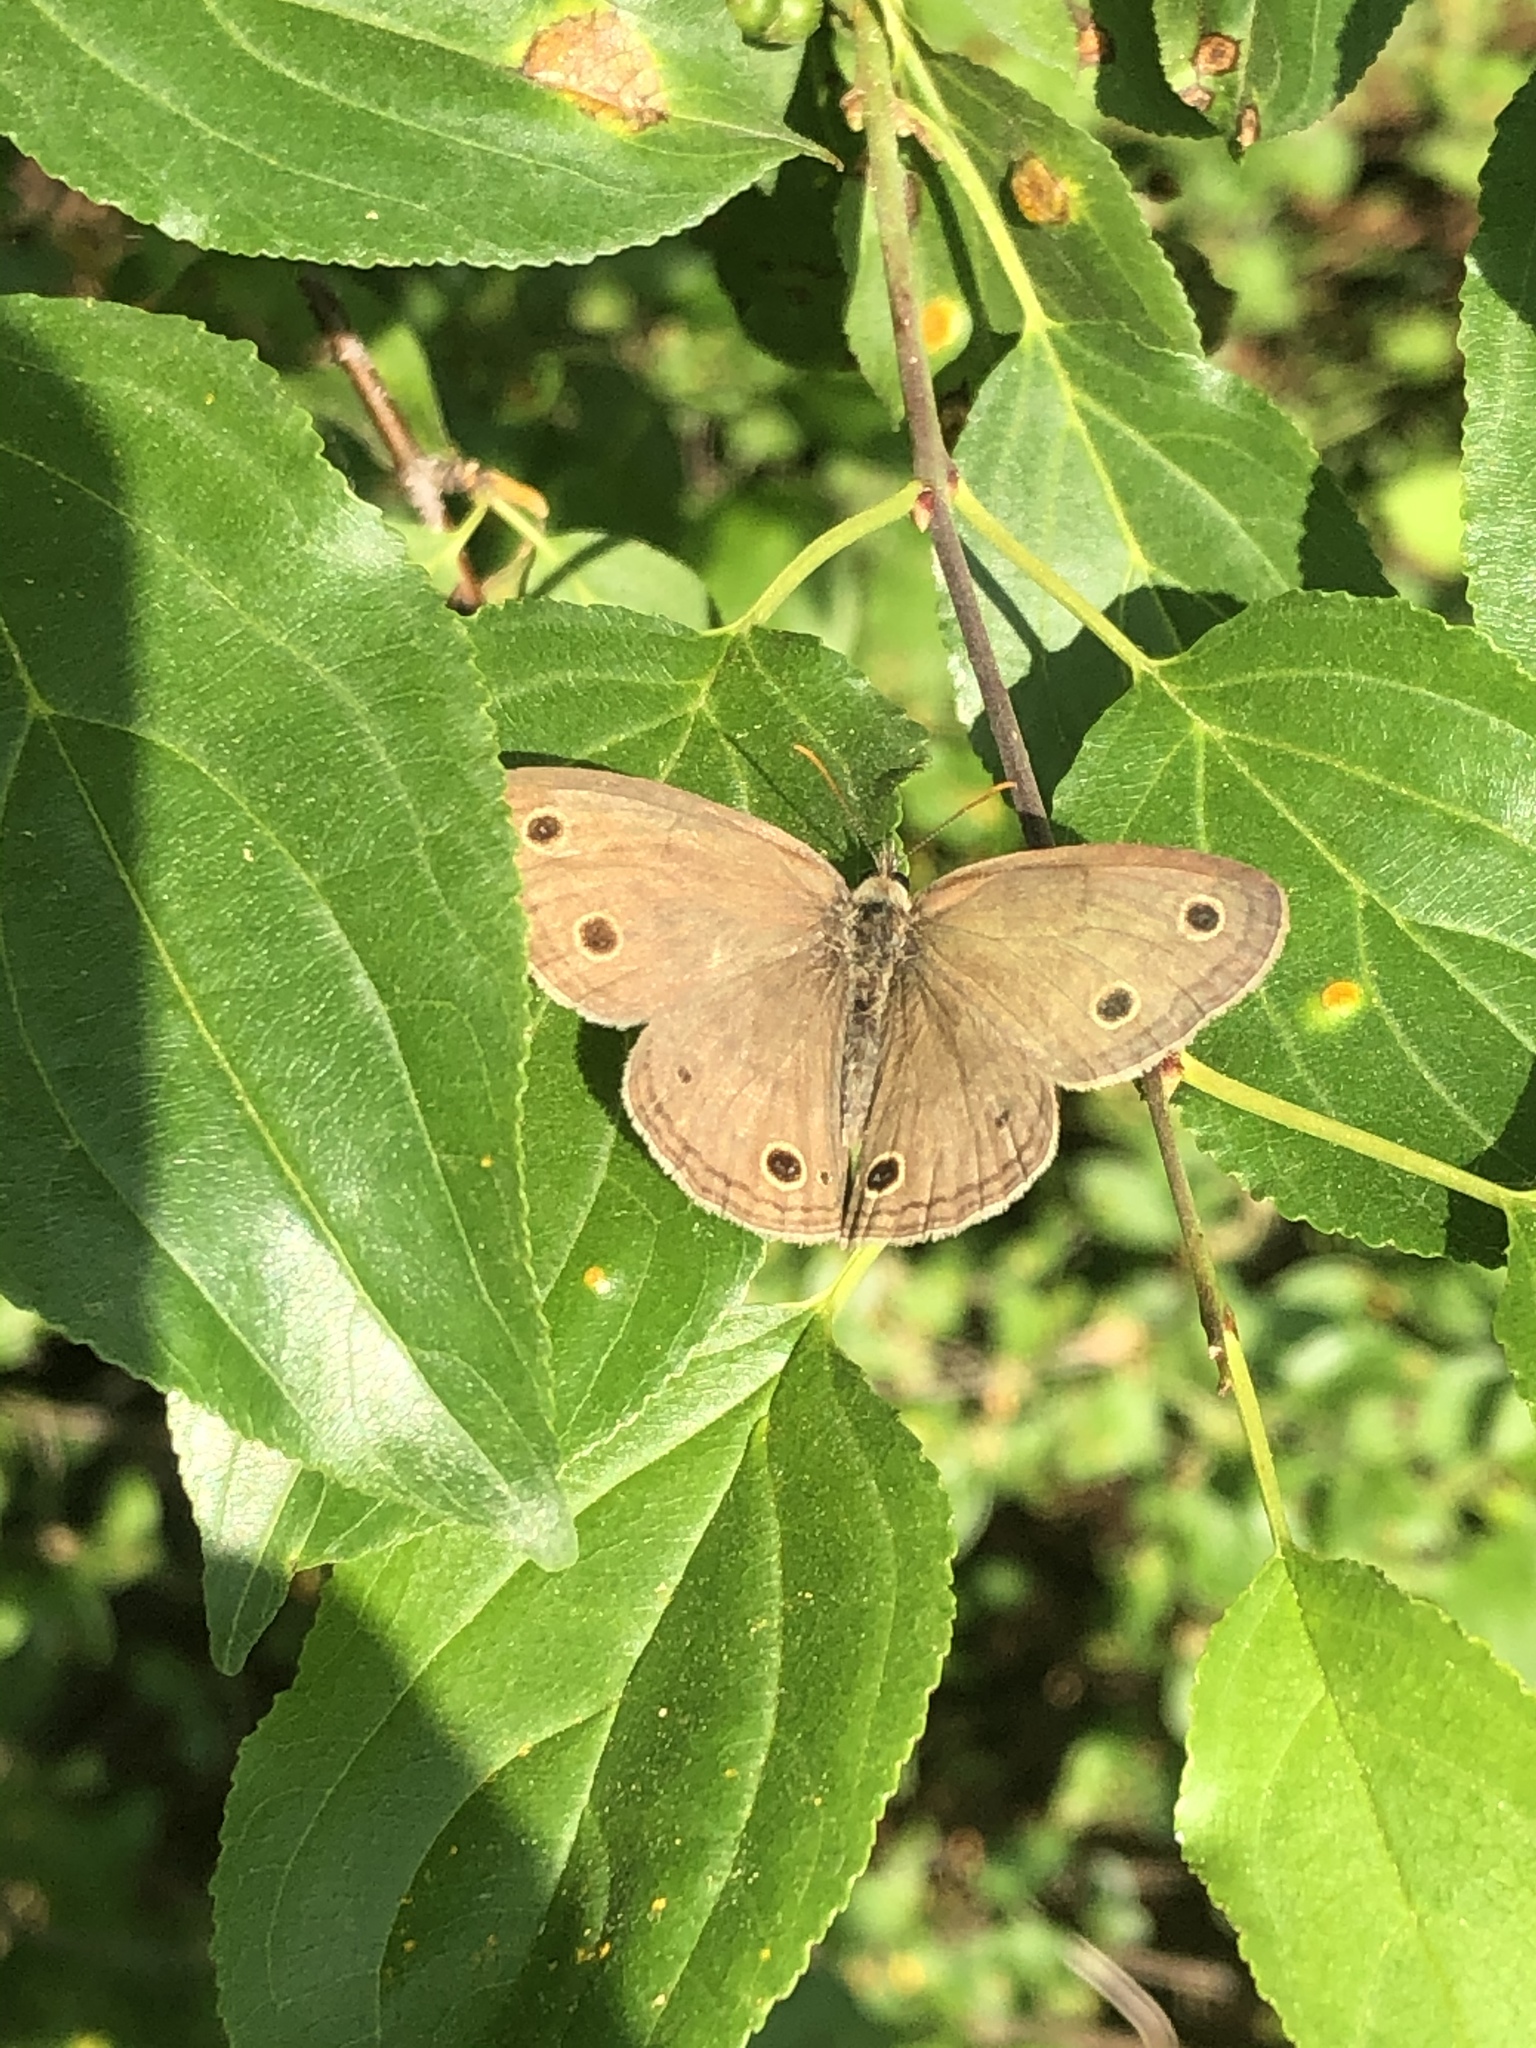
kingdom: Animalia
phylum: Arthropoda
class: Insecta
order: Lepidoptera
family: Nymphalidae
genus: Euptychia
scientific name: Euptychia cymela
